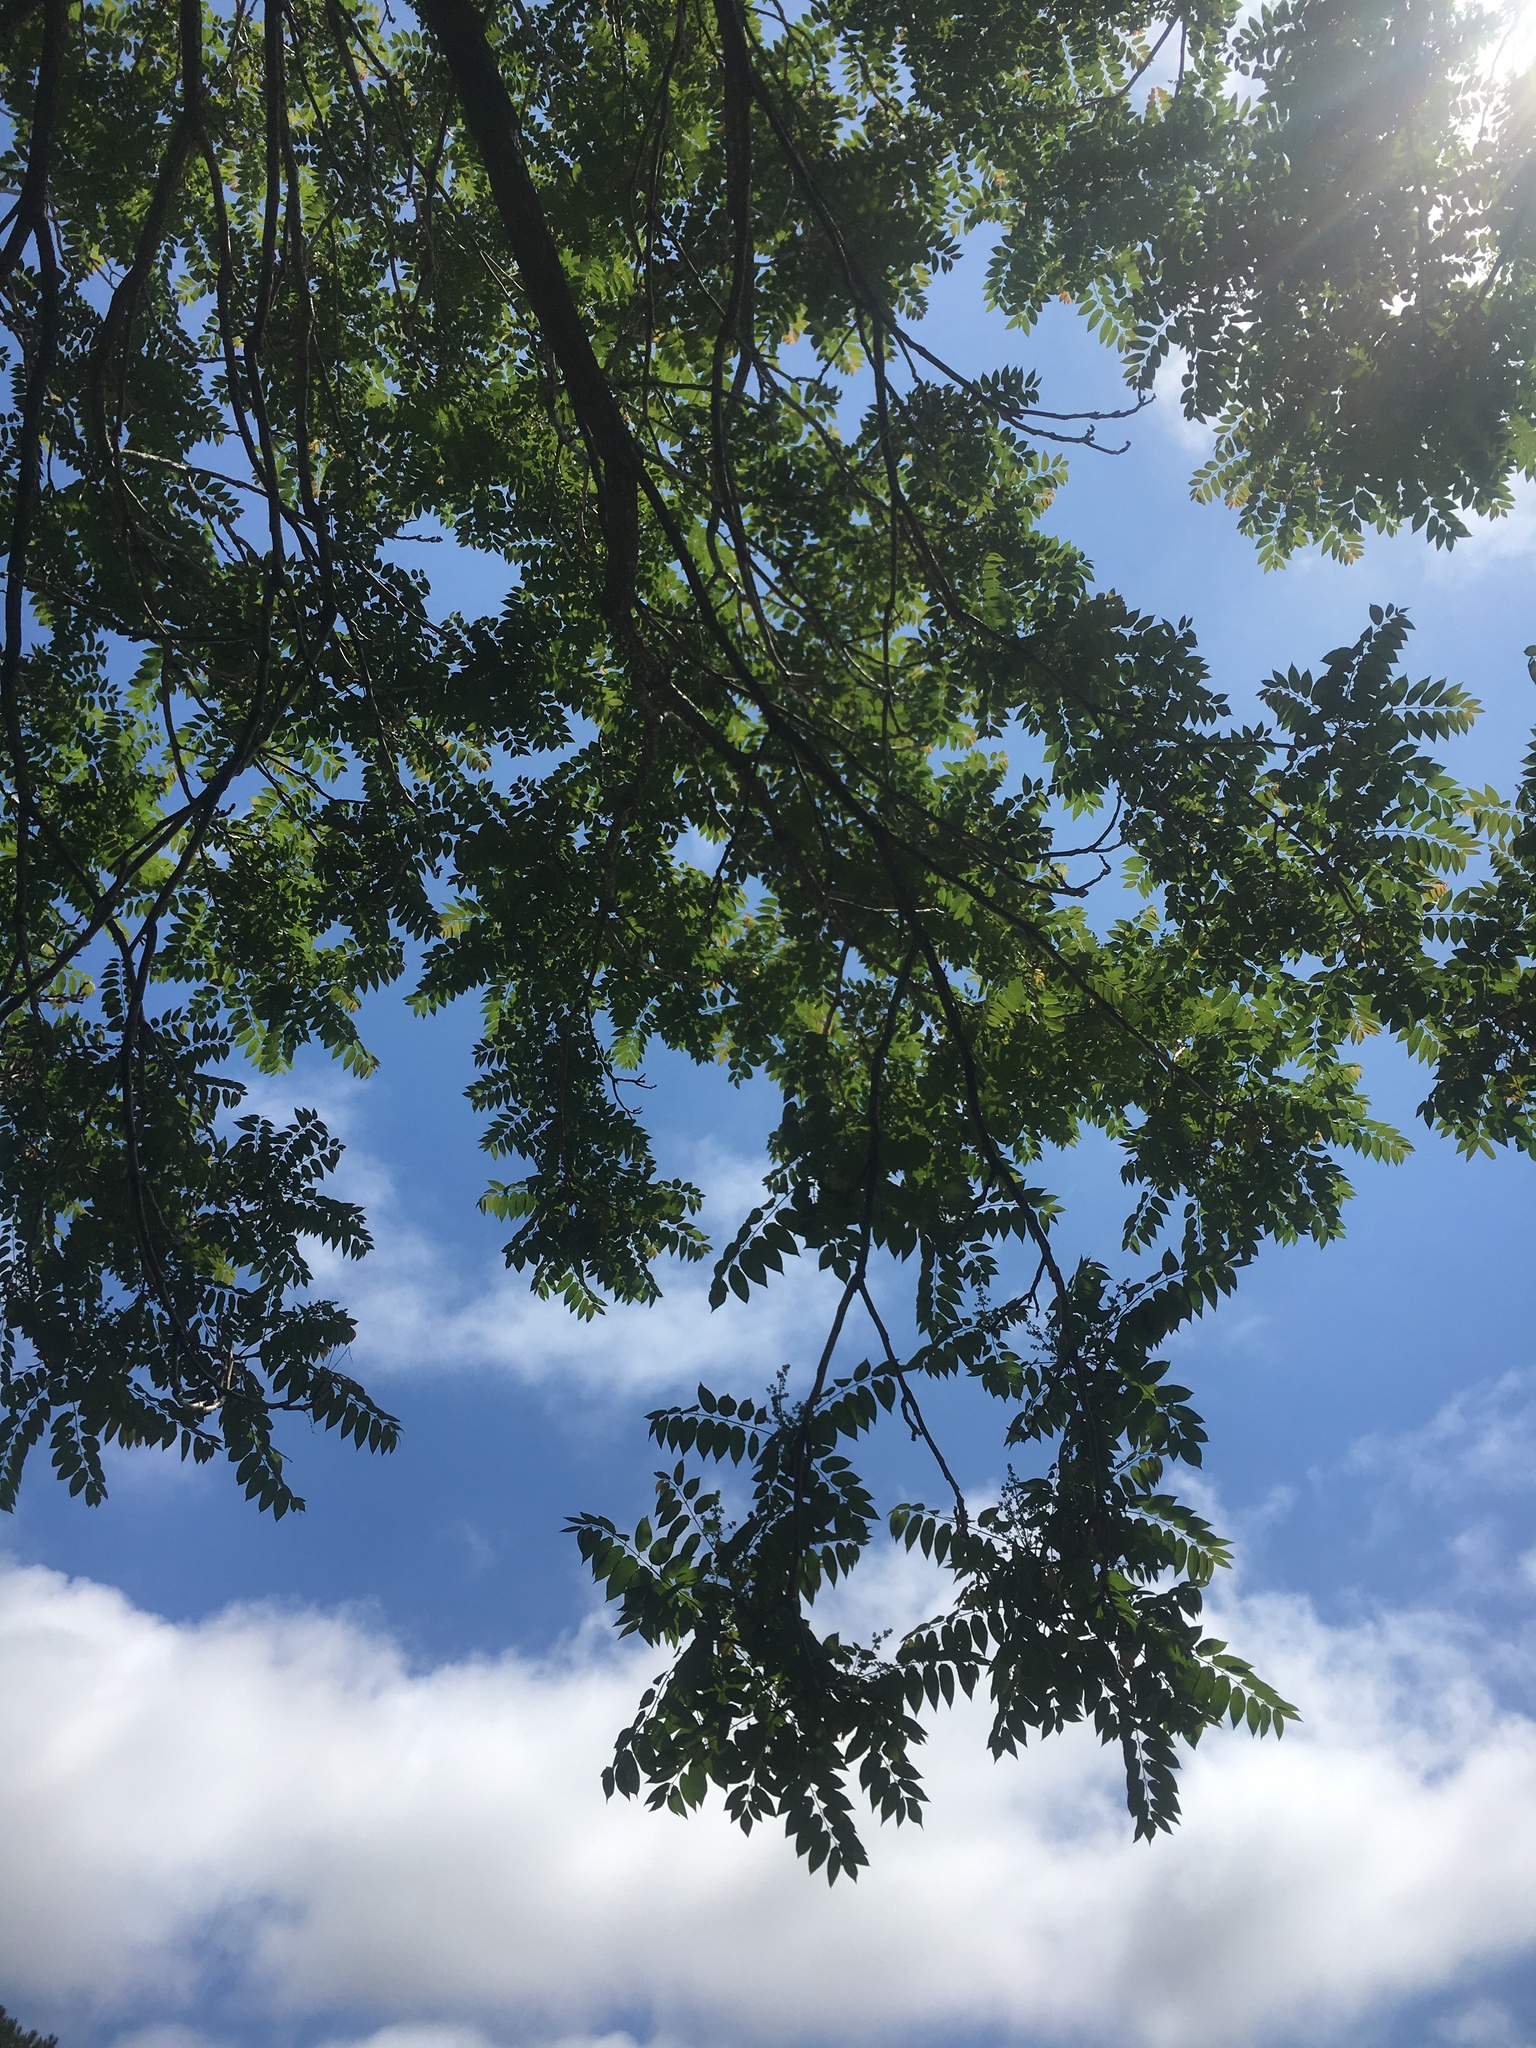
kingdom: Plantae
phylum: Tracheophyta
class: Magnoliopsida
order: Fagales
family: Juglandaceae
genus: Juglans
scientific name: Juglans nigra
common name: Black walnut
